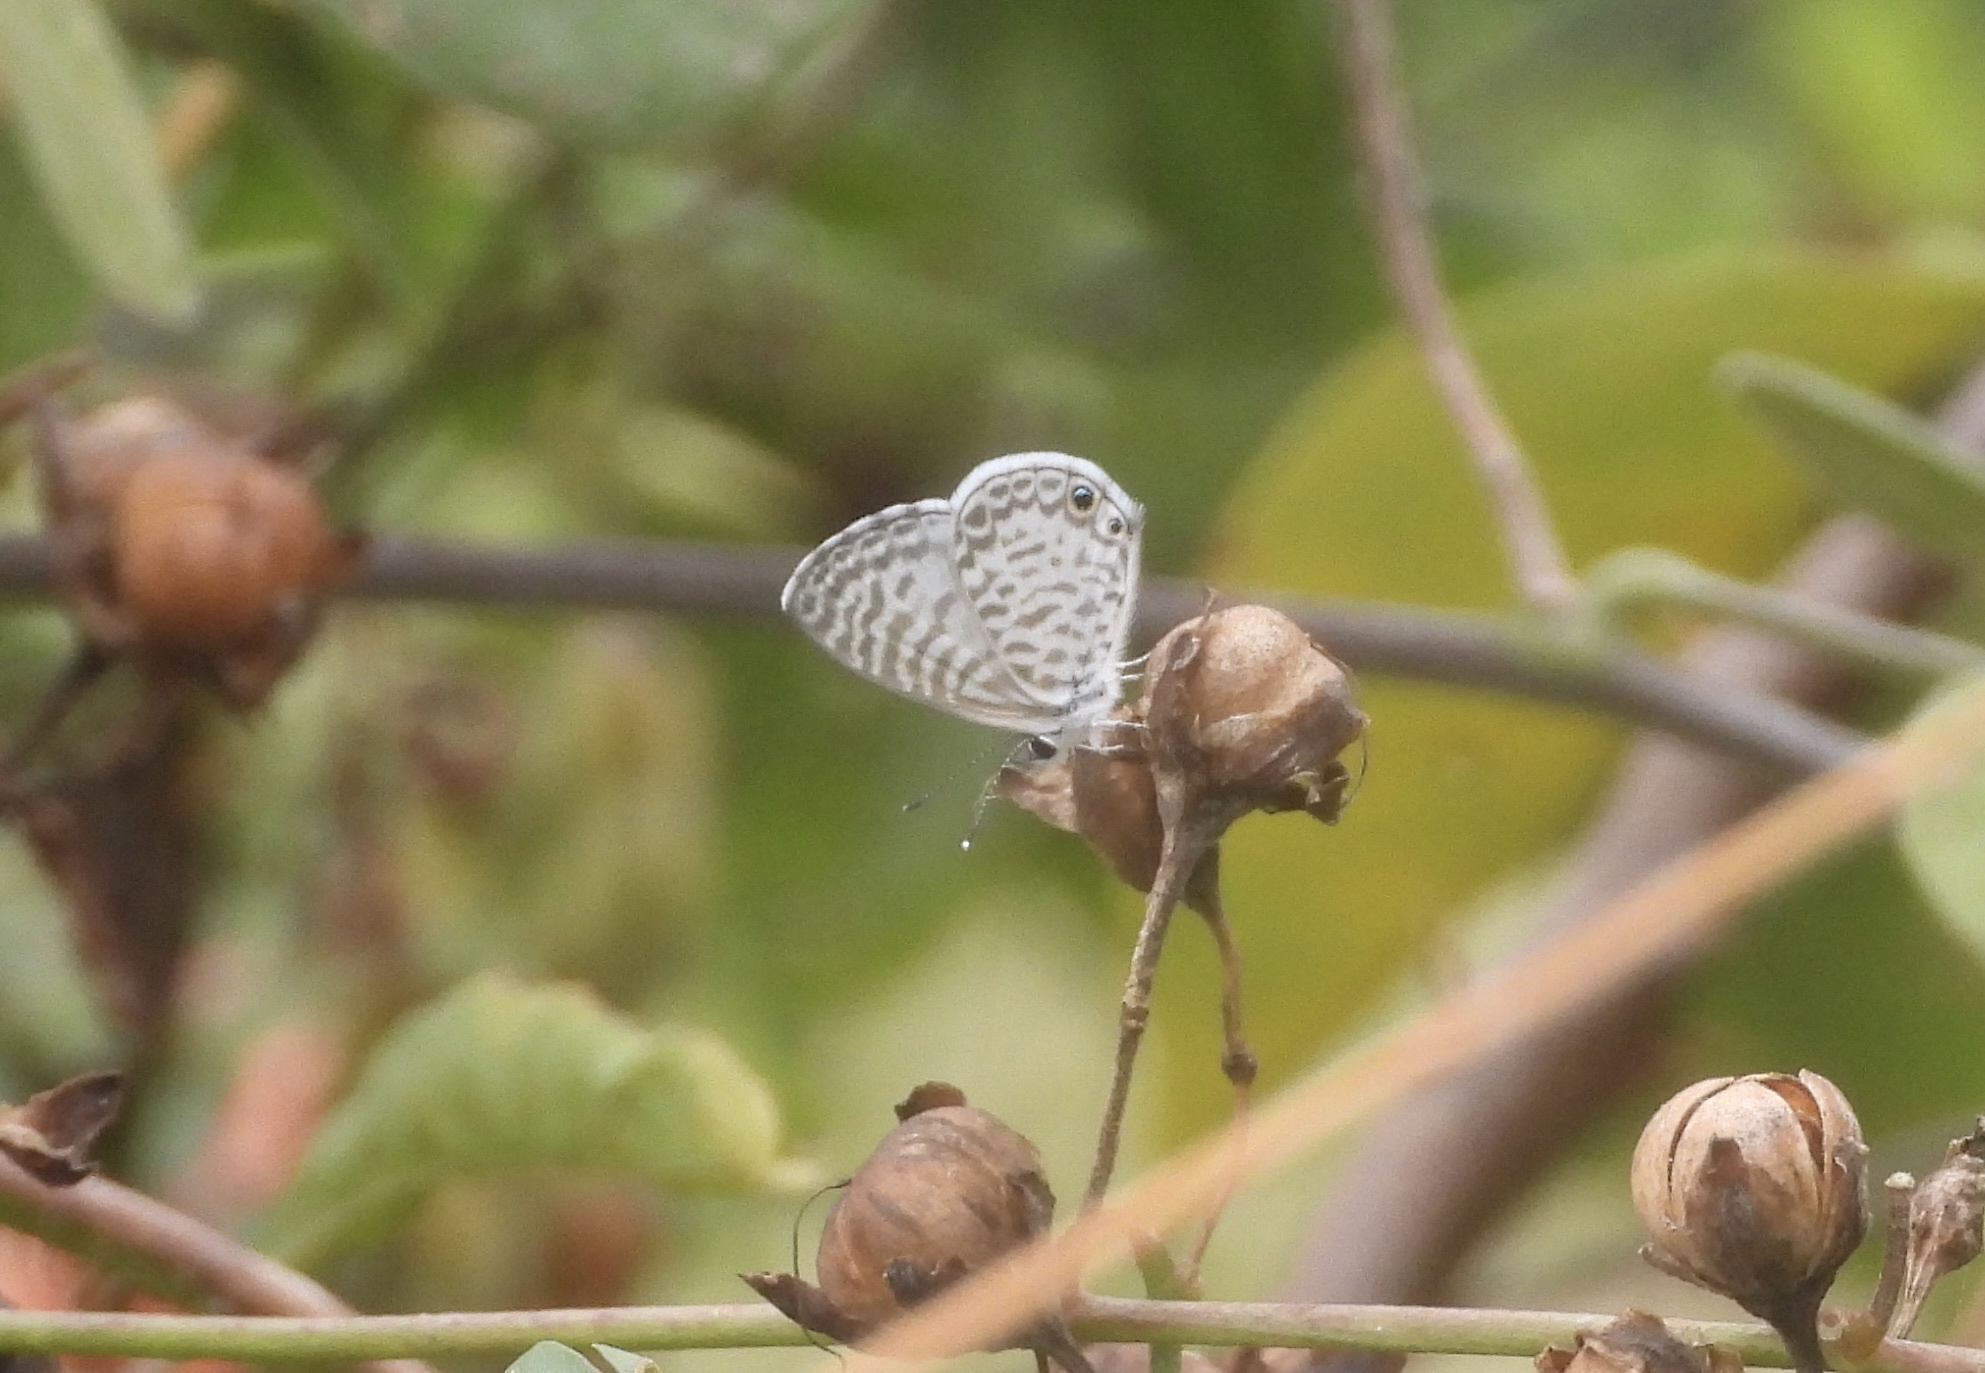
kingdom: Animalia
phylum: Arthropoda
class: Insecta
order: Lepidoptera
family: Lycaenidae
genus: Leptotes
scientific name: Leptotes theonus
